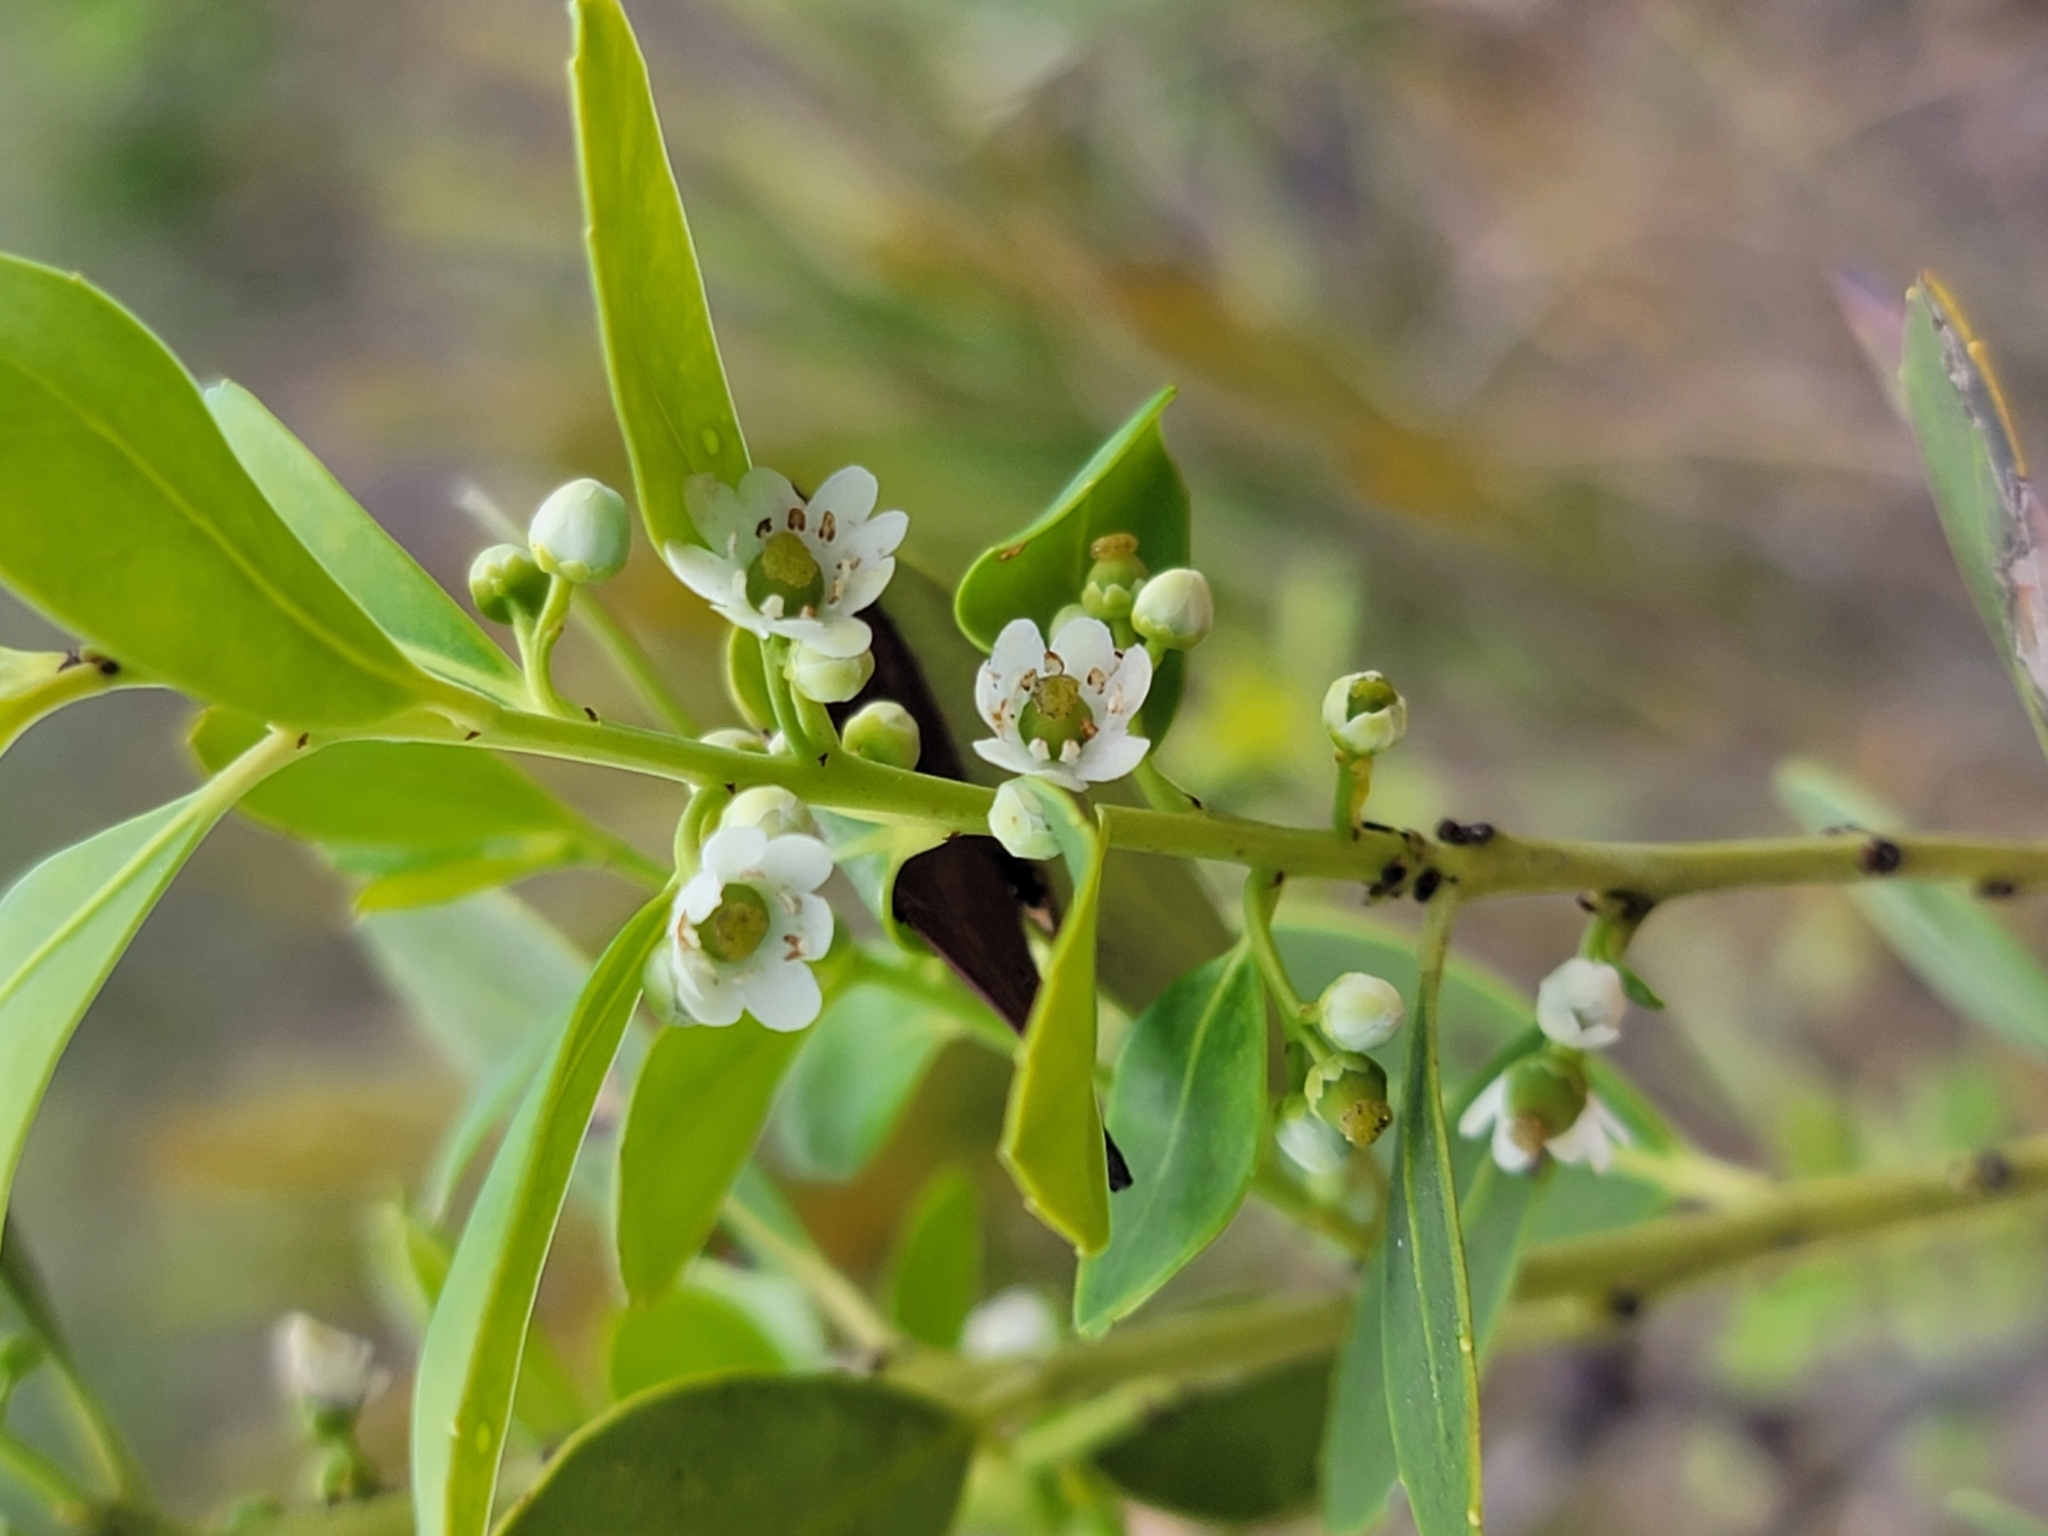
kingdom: Plantae
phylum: Tracheophyta
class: Magnoliopsida
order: Aquifoliales
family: Aquifoliaceae
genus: Ilex
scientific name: Ilex glabra
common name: Bitter gallberry
